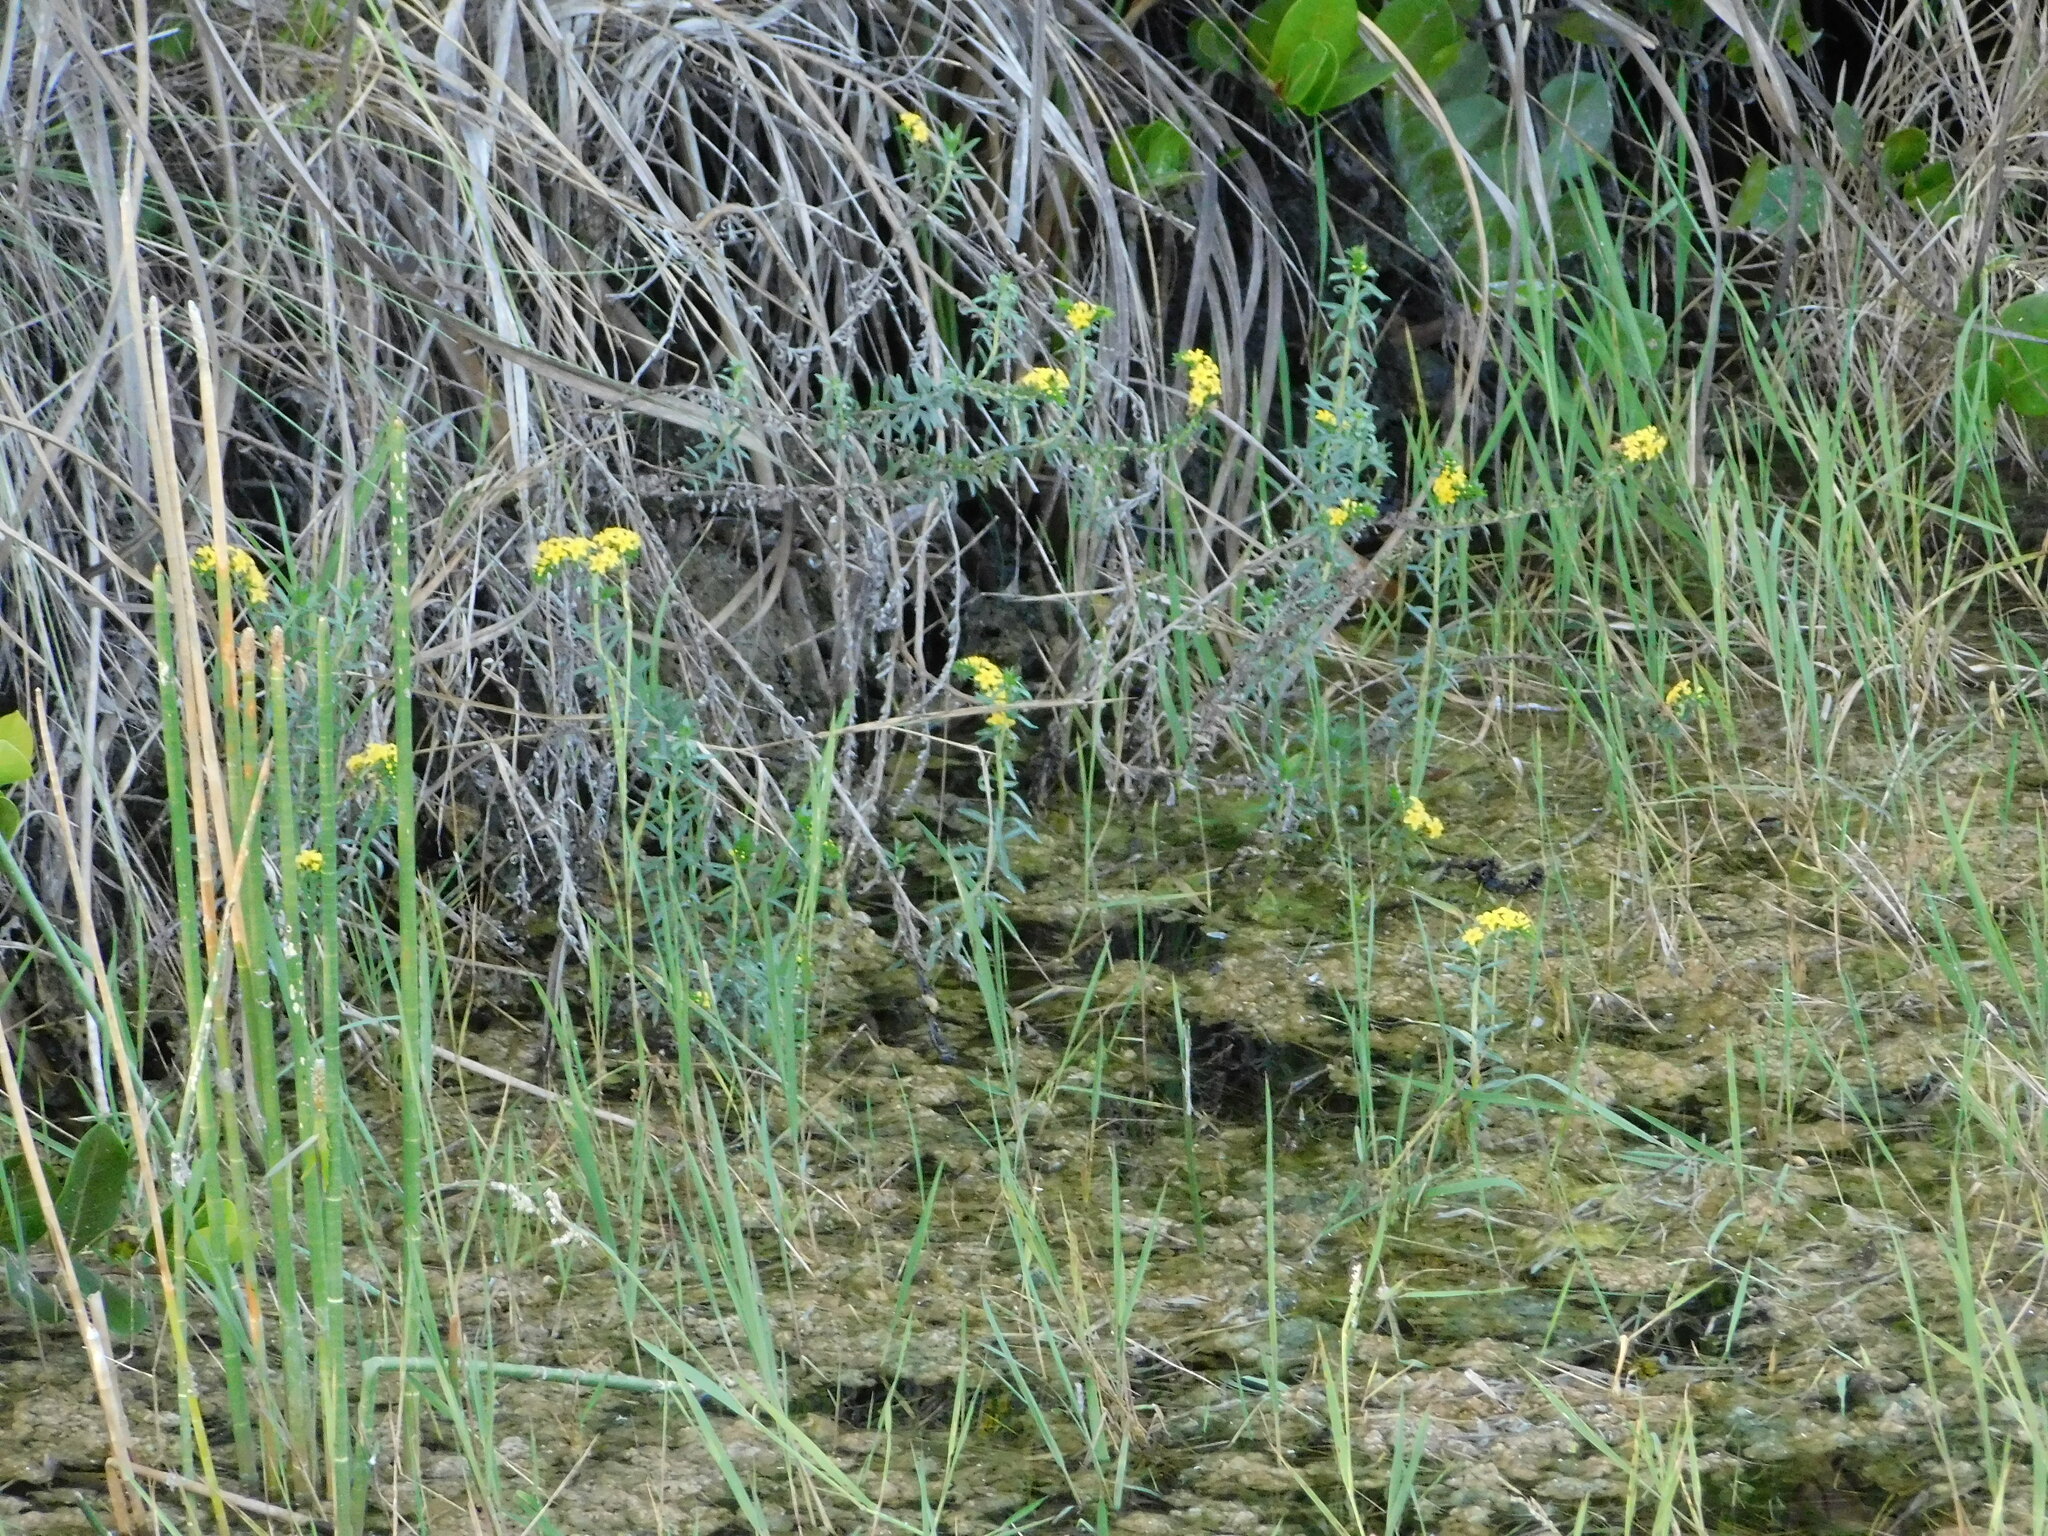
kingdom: Plantae
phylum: Tracheophyta
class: Magnoliopsida
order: Boraginales
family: Heliotropiaceae
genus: Euploca
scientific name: Euploca polyphylla
